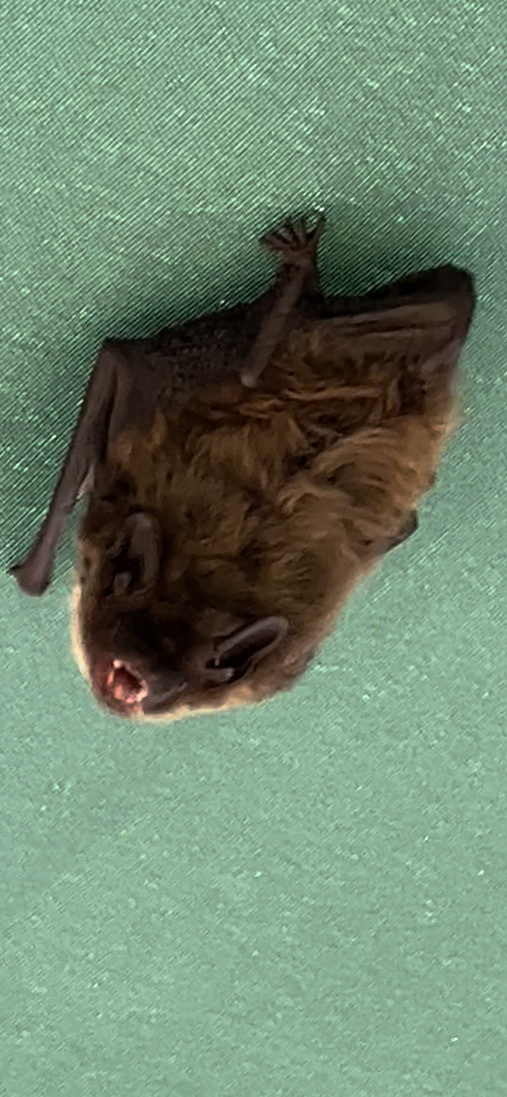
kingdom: Animalia
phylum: Chordata
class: Mammalia
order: Chiroptera
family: Vespertilionidae
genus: Nycticeius
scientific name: Nycticeius humeralis
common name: Evening bat
